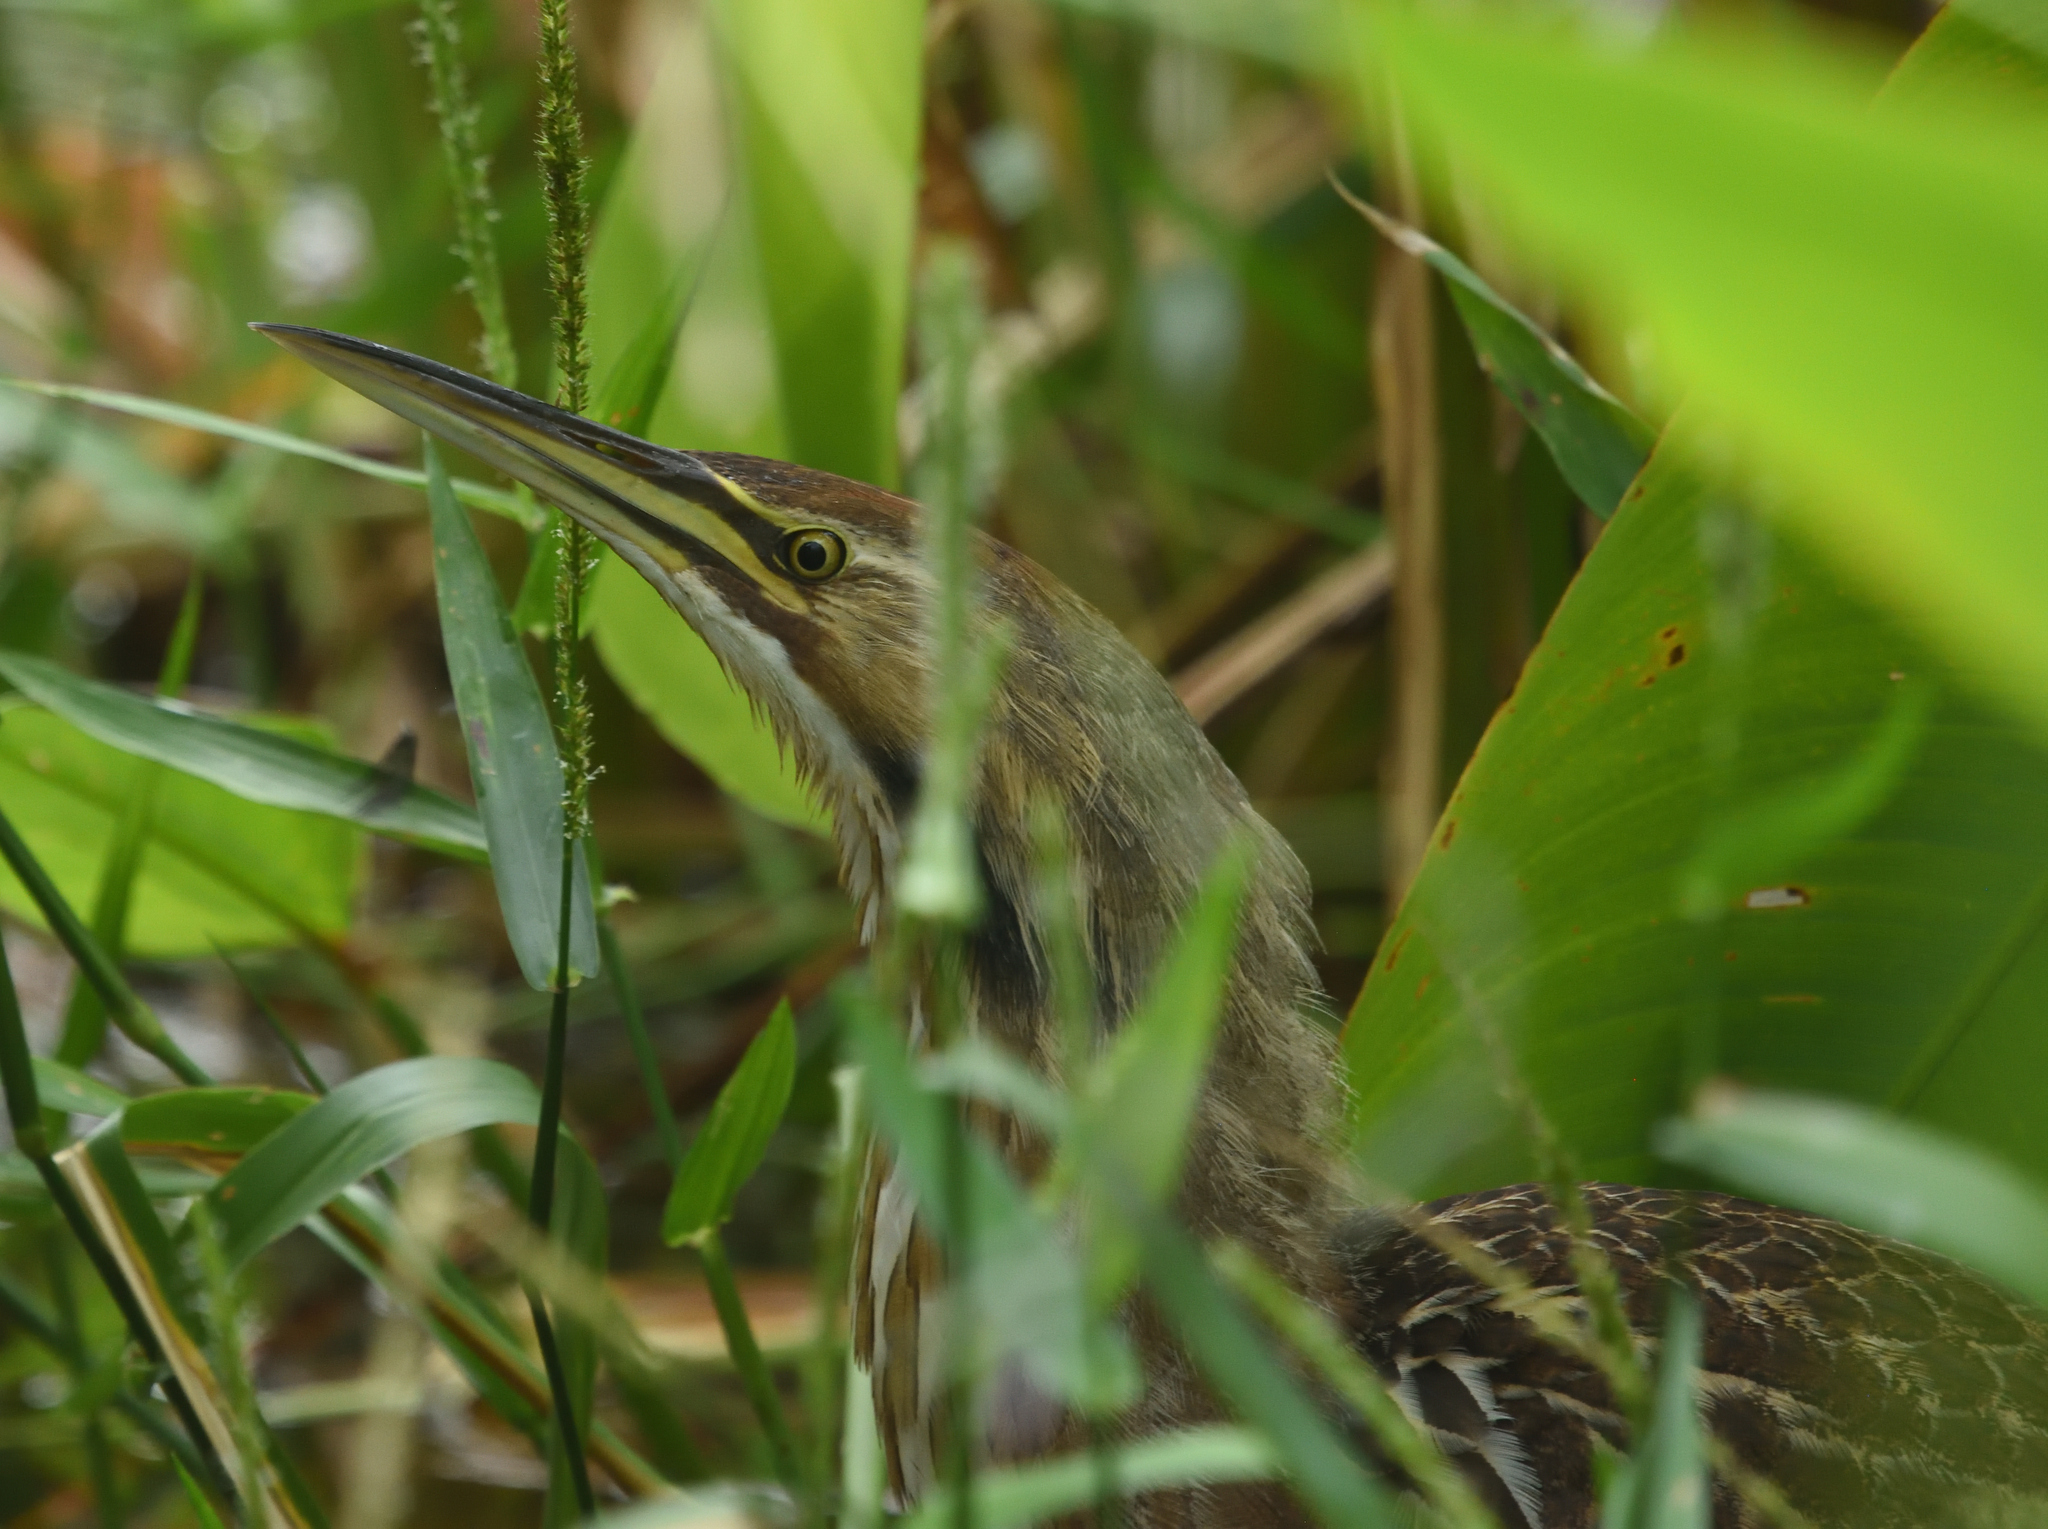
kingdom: Animalia
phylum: Chordata
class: Aves
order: Pelecaniformes
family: Ardeidae
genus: Botaurus
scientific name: Botaurus lentiginosus
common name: American bittern
